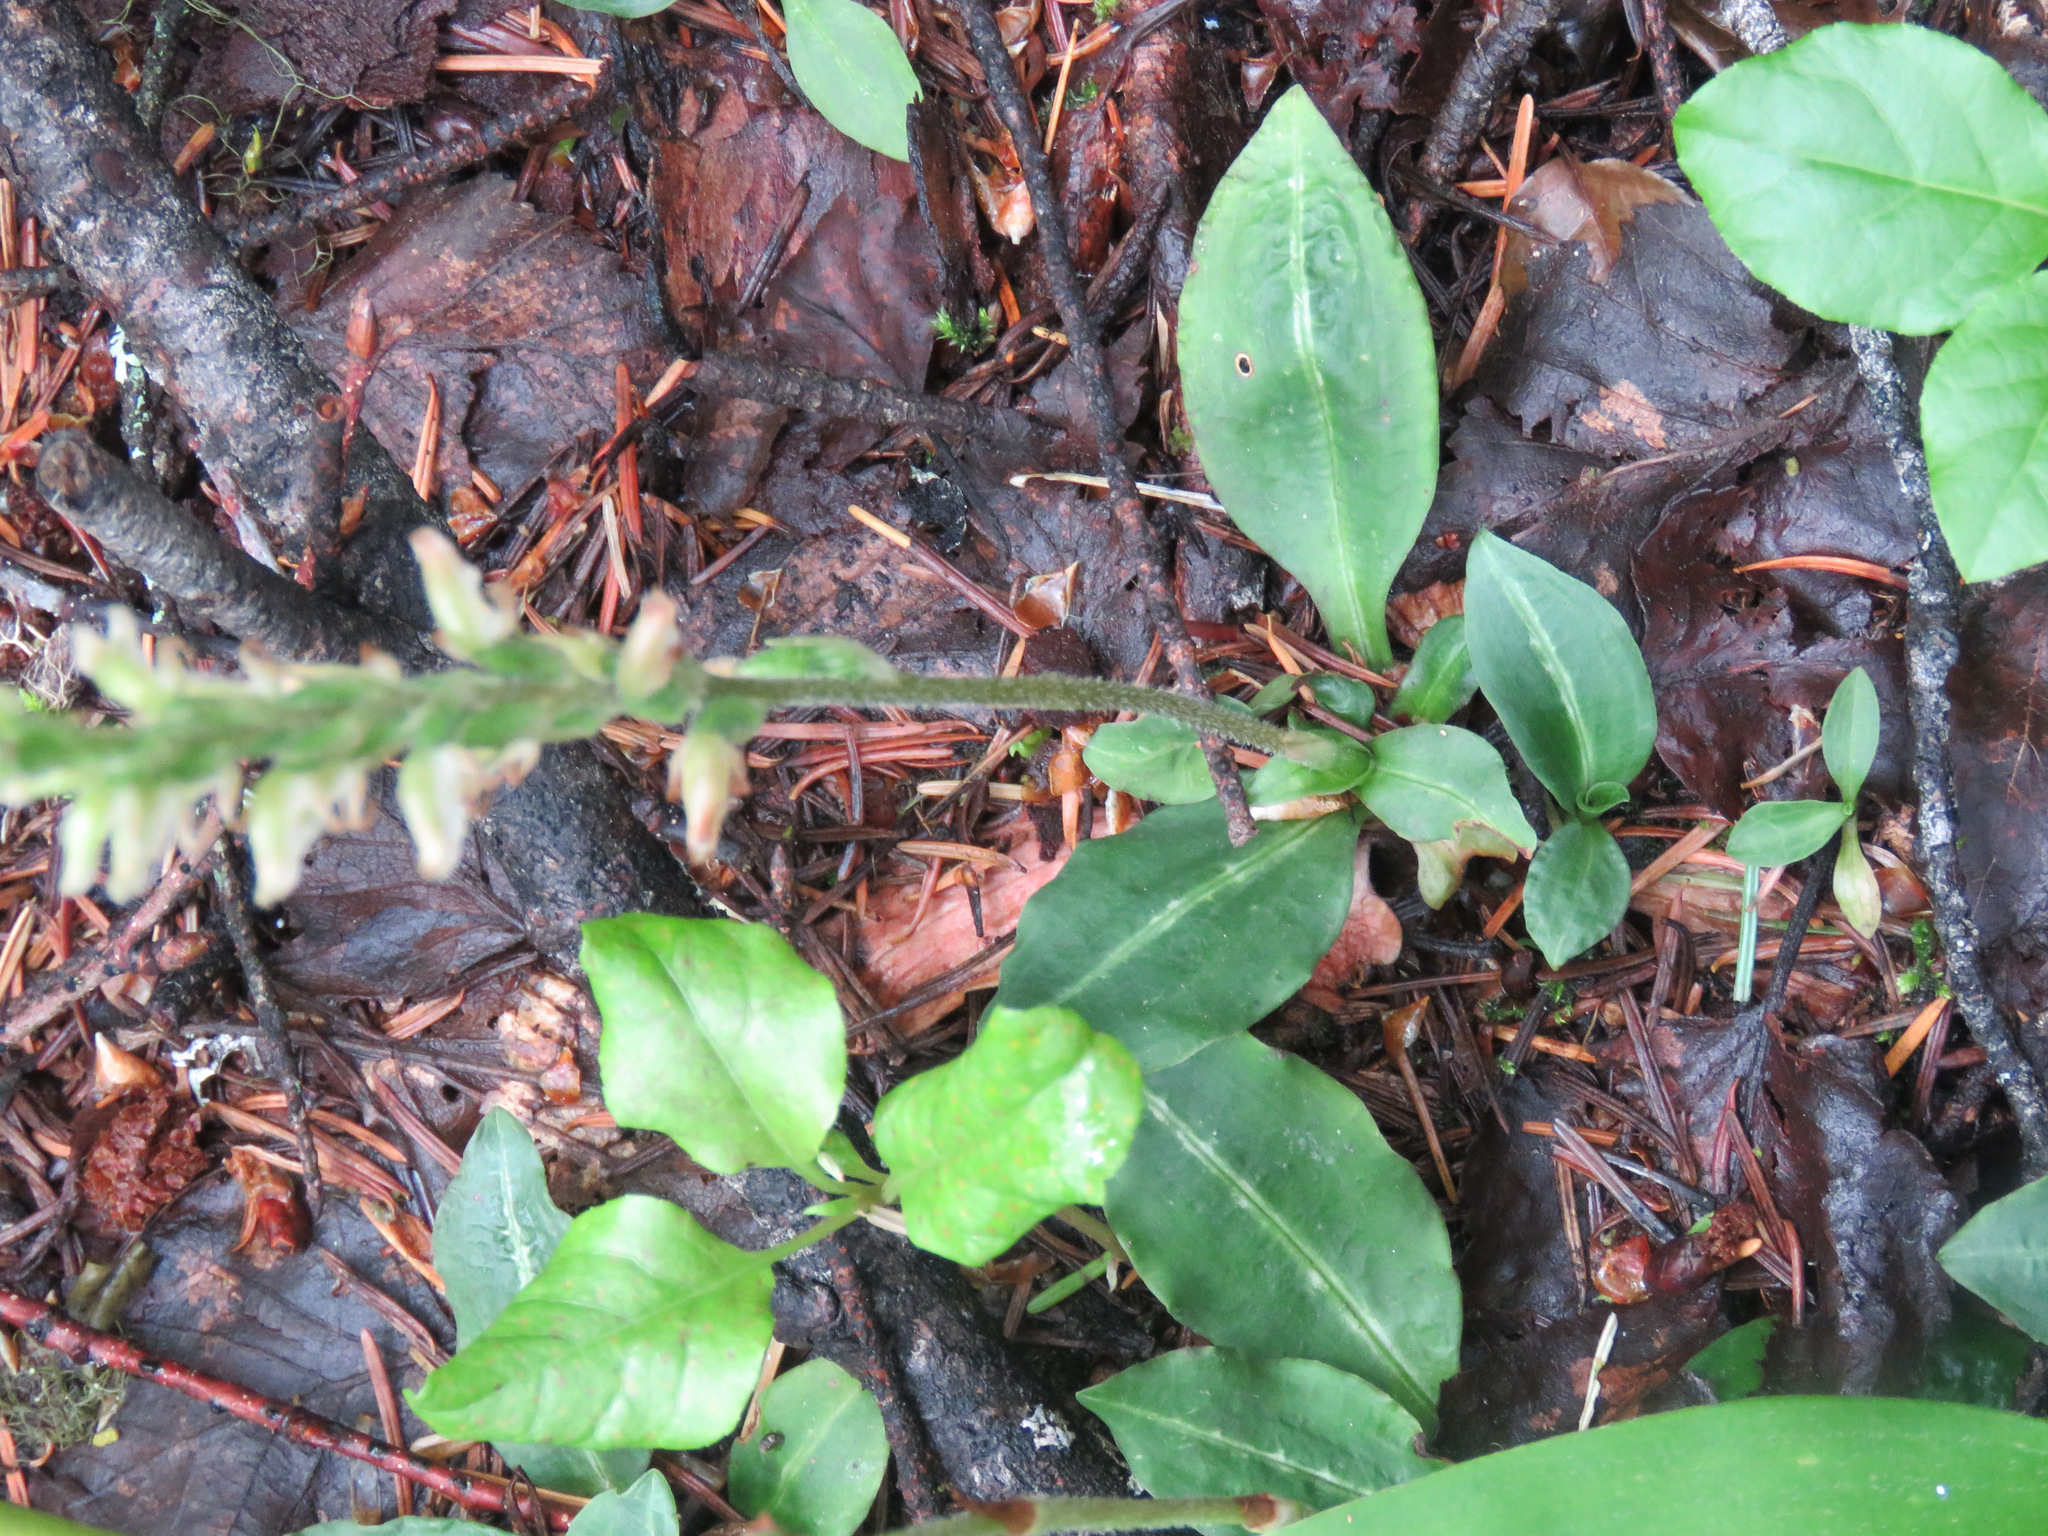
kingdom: Plantae
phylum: Tracheophyta
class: Liliopsida
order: Asparagales
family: Orchidaceae
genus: Goodyera
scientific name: Goodyera oblongifolia
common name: Giant rattlesnake-plantain
